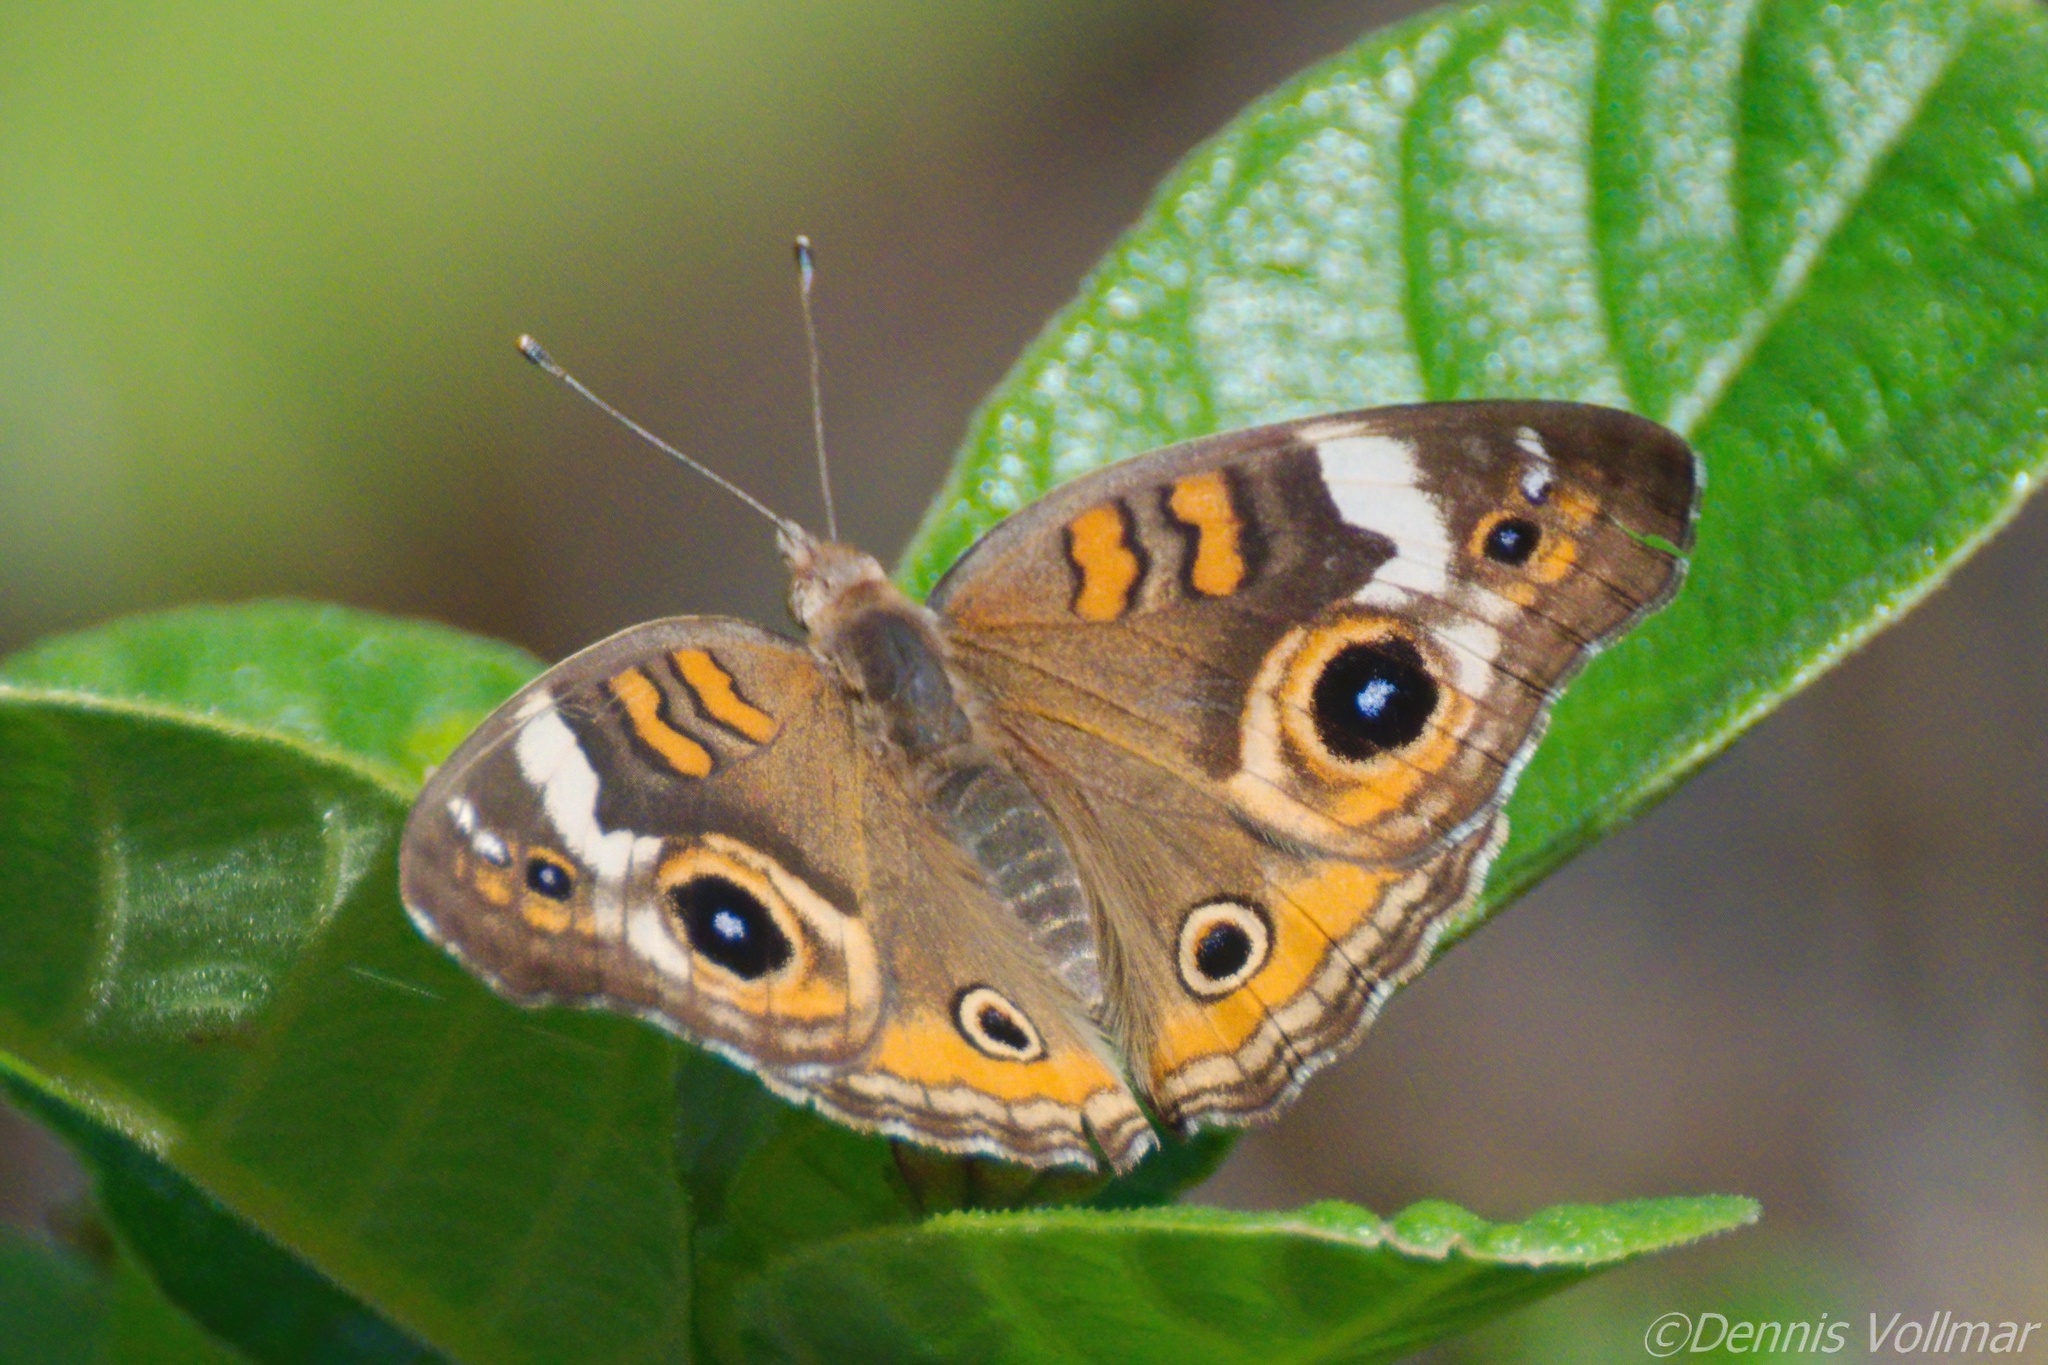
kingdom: Animalia
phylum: Arthropoda
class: Insecta
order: Lepidoptera
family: Nymphalidae
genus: Junonia
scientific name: Junonia coenia
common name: Common buckeye
